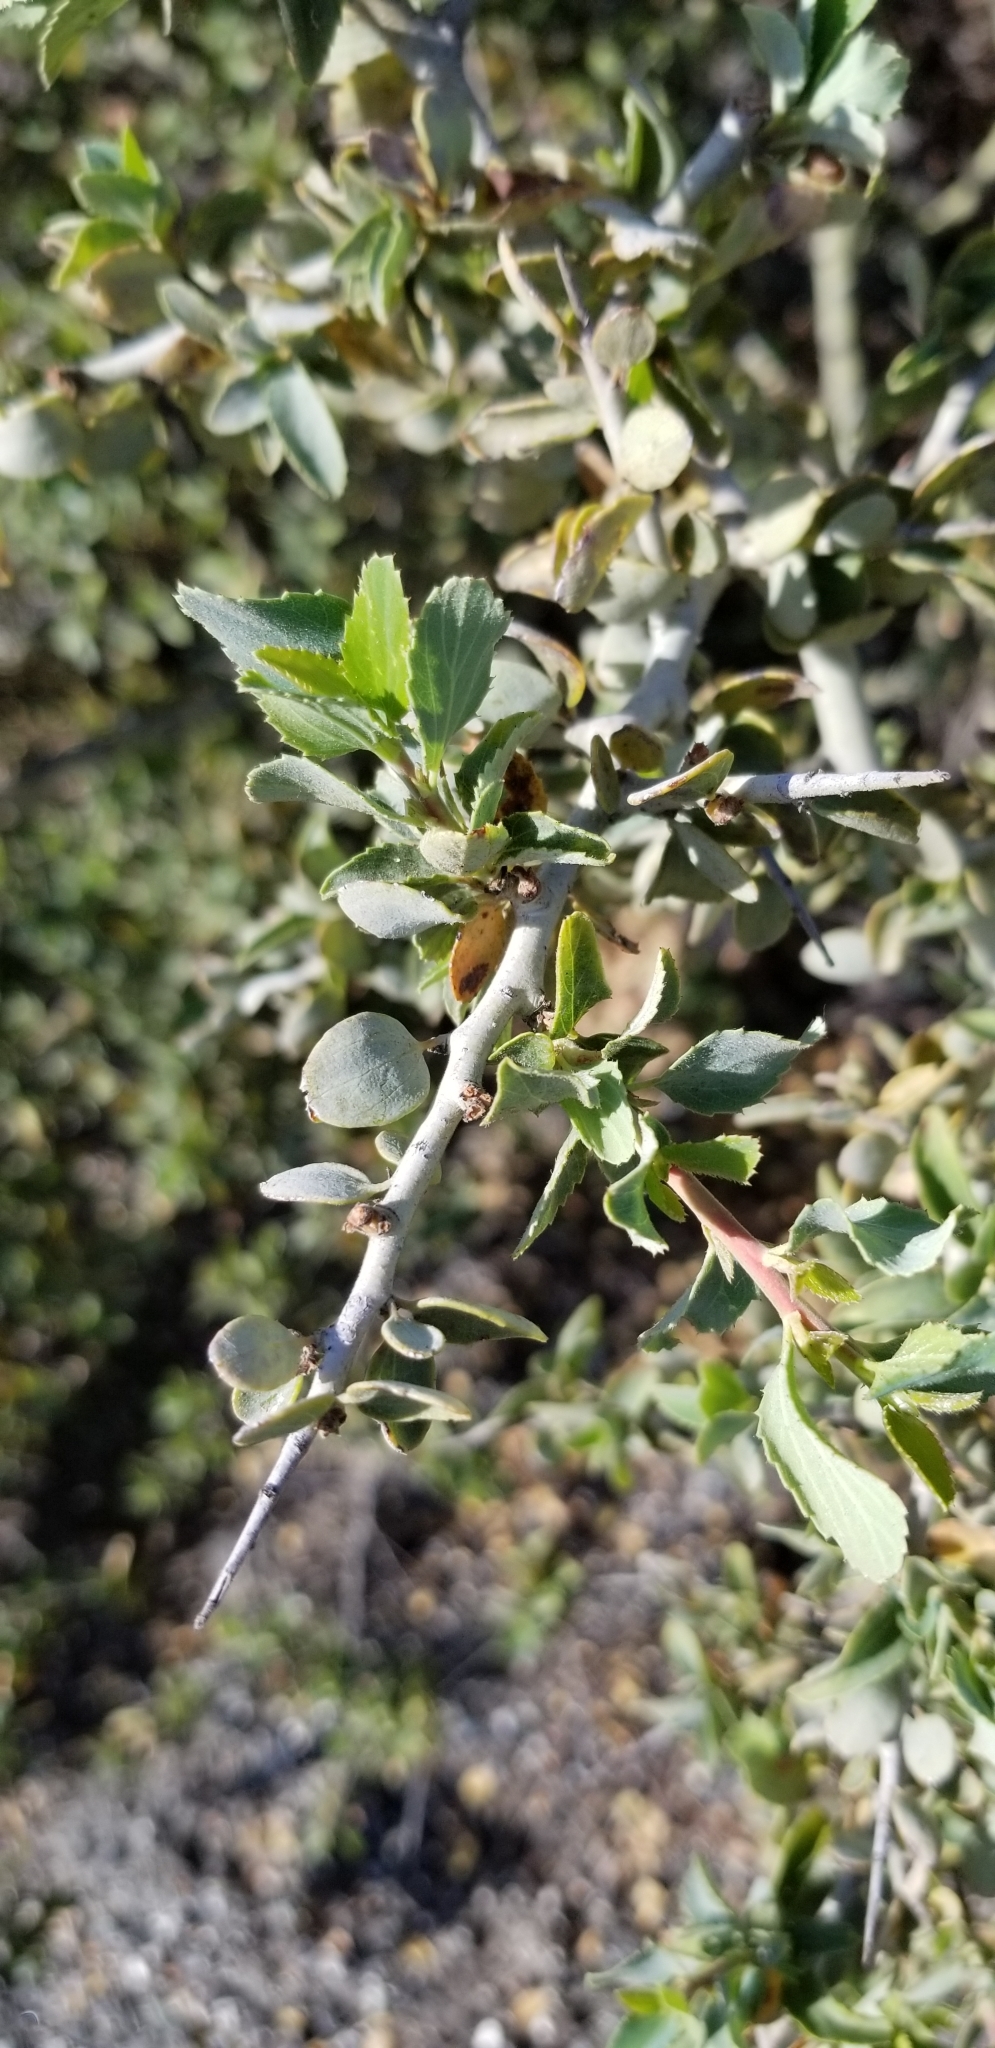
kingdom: Plantae
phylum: Tracheophyta
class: Magnoliopsida
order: Rosales
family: Rhamnaceae
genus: Ceanothus
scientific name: Ceanothus leucodermis
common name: Chaparral whitethorn
